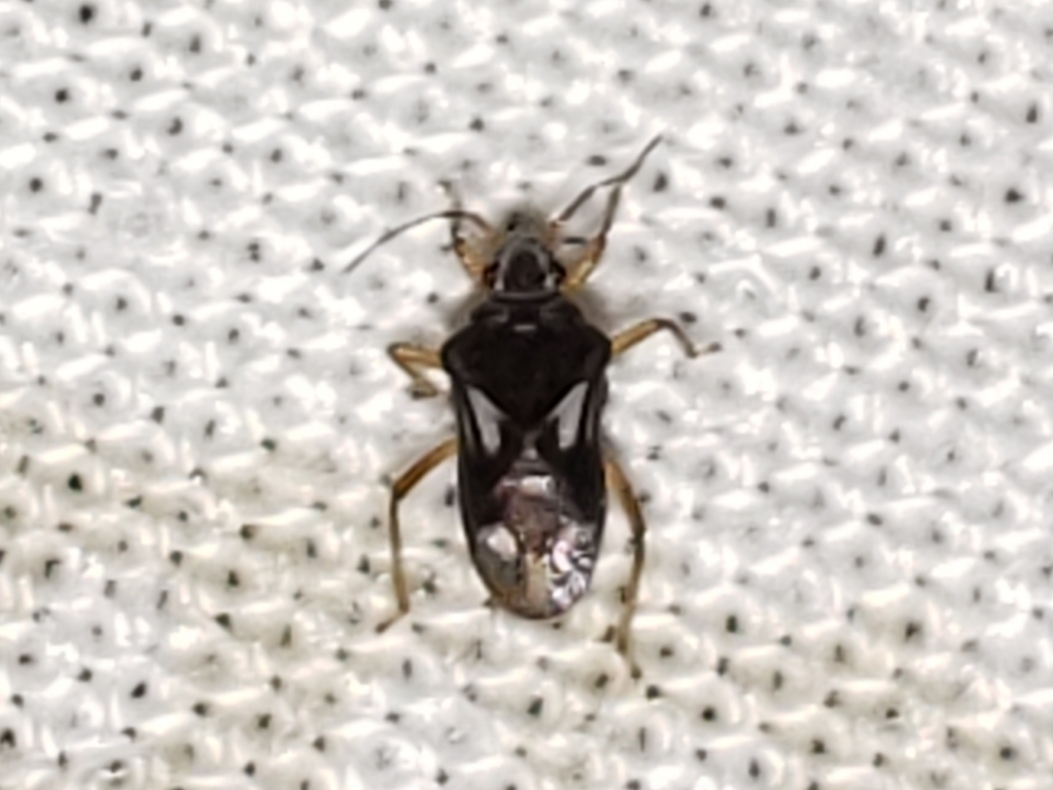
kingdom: Animalia
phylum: Arthropoda
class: Insecta
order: Hemiptera
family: Hebridae
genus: Hebrus
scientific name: Hebrus consolidus
